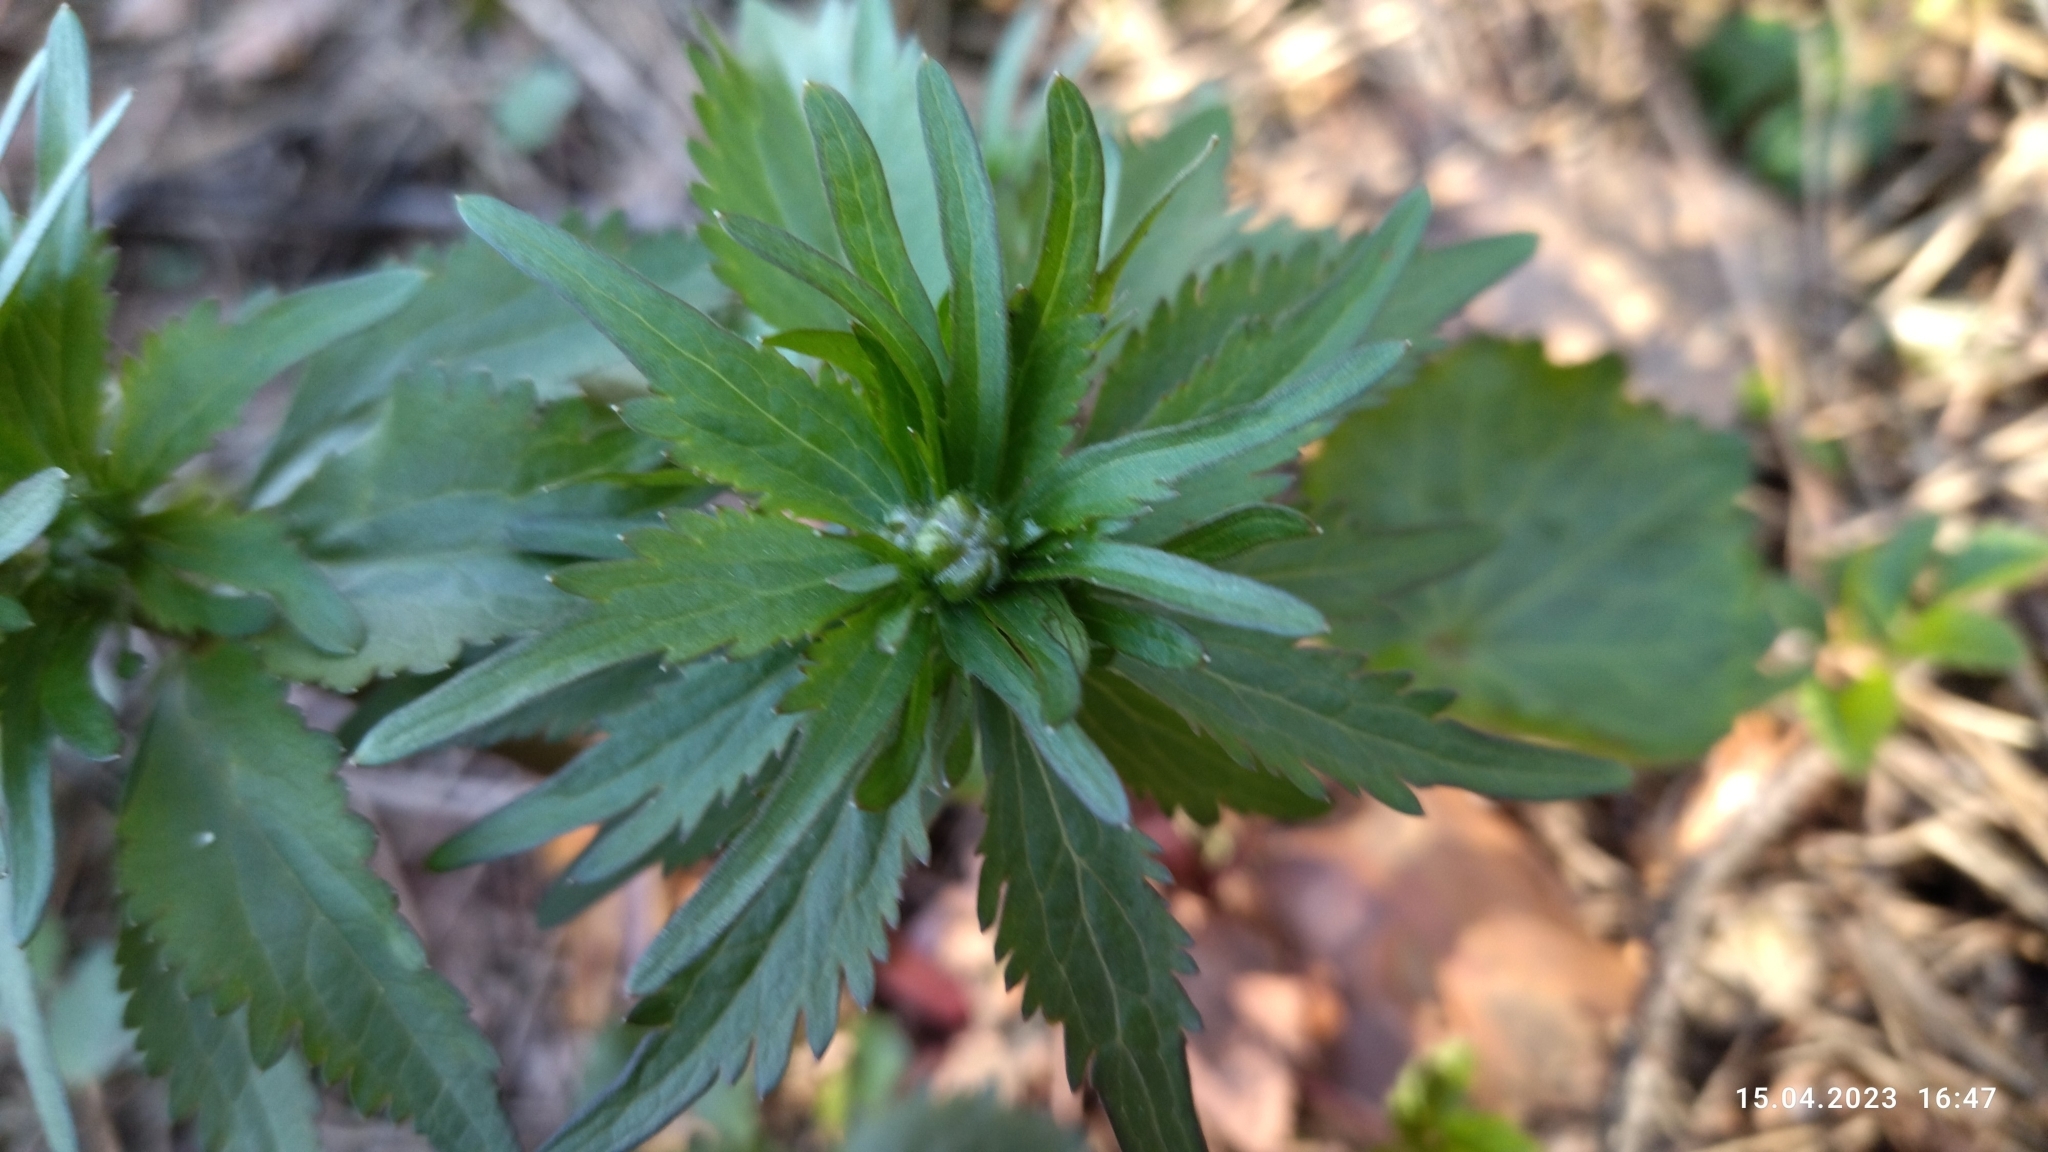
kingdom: Plantae
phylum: Tracheophyta
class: Magnoliopsida
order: Ranunculales
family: Ranunculaceae
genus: Ranunculus
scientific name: Ranunculus cassubicus
